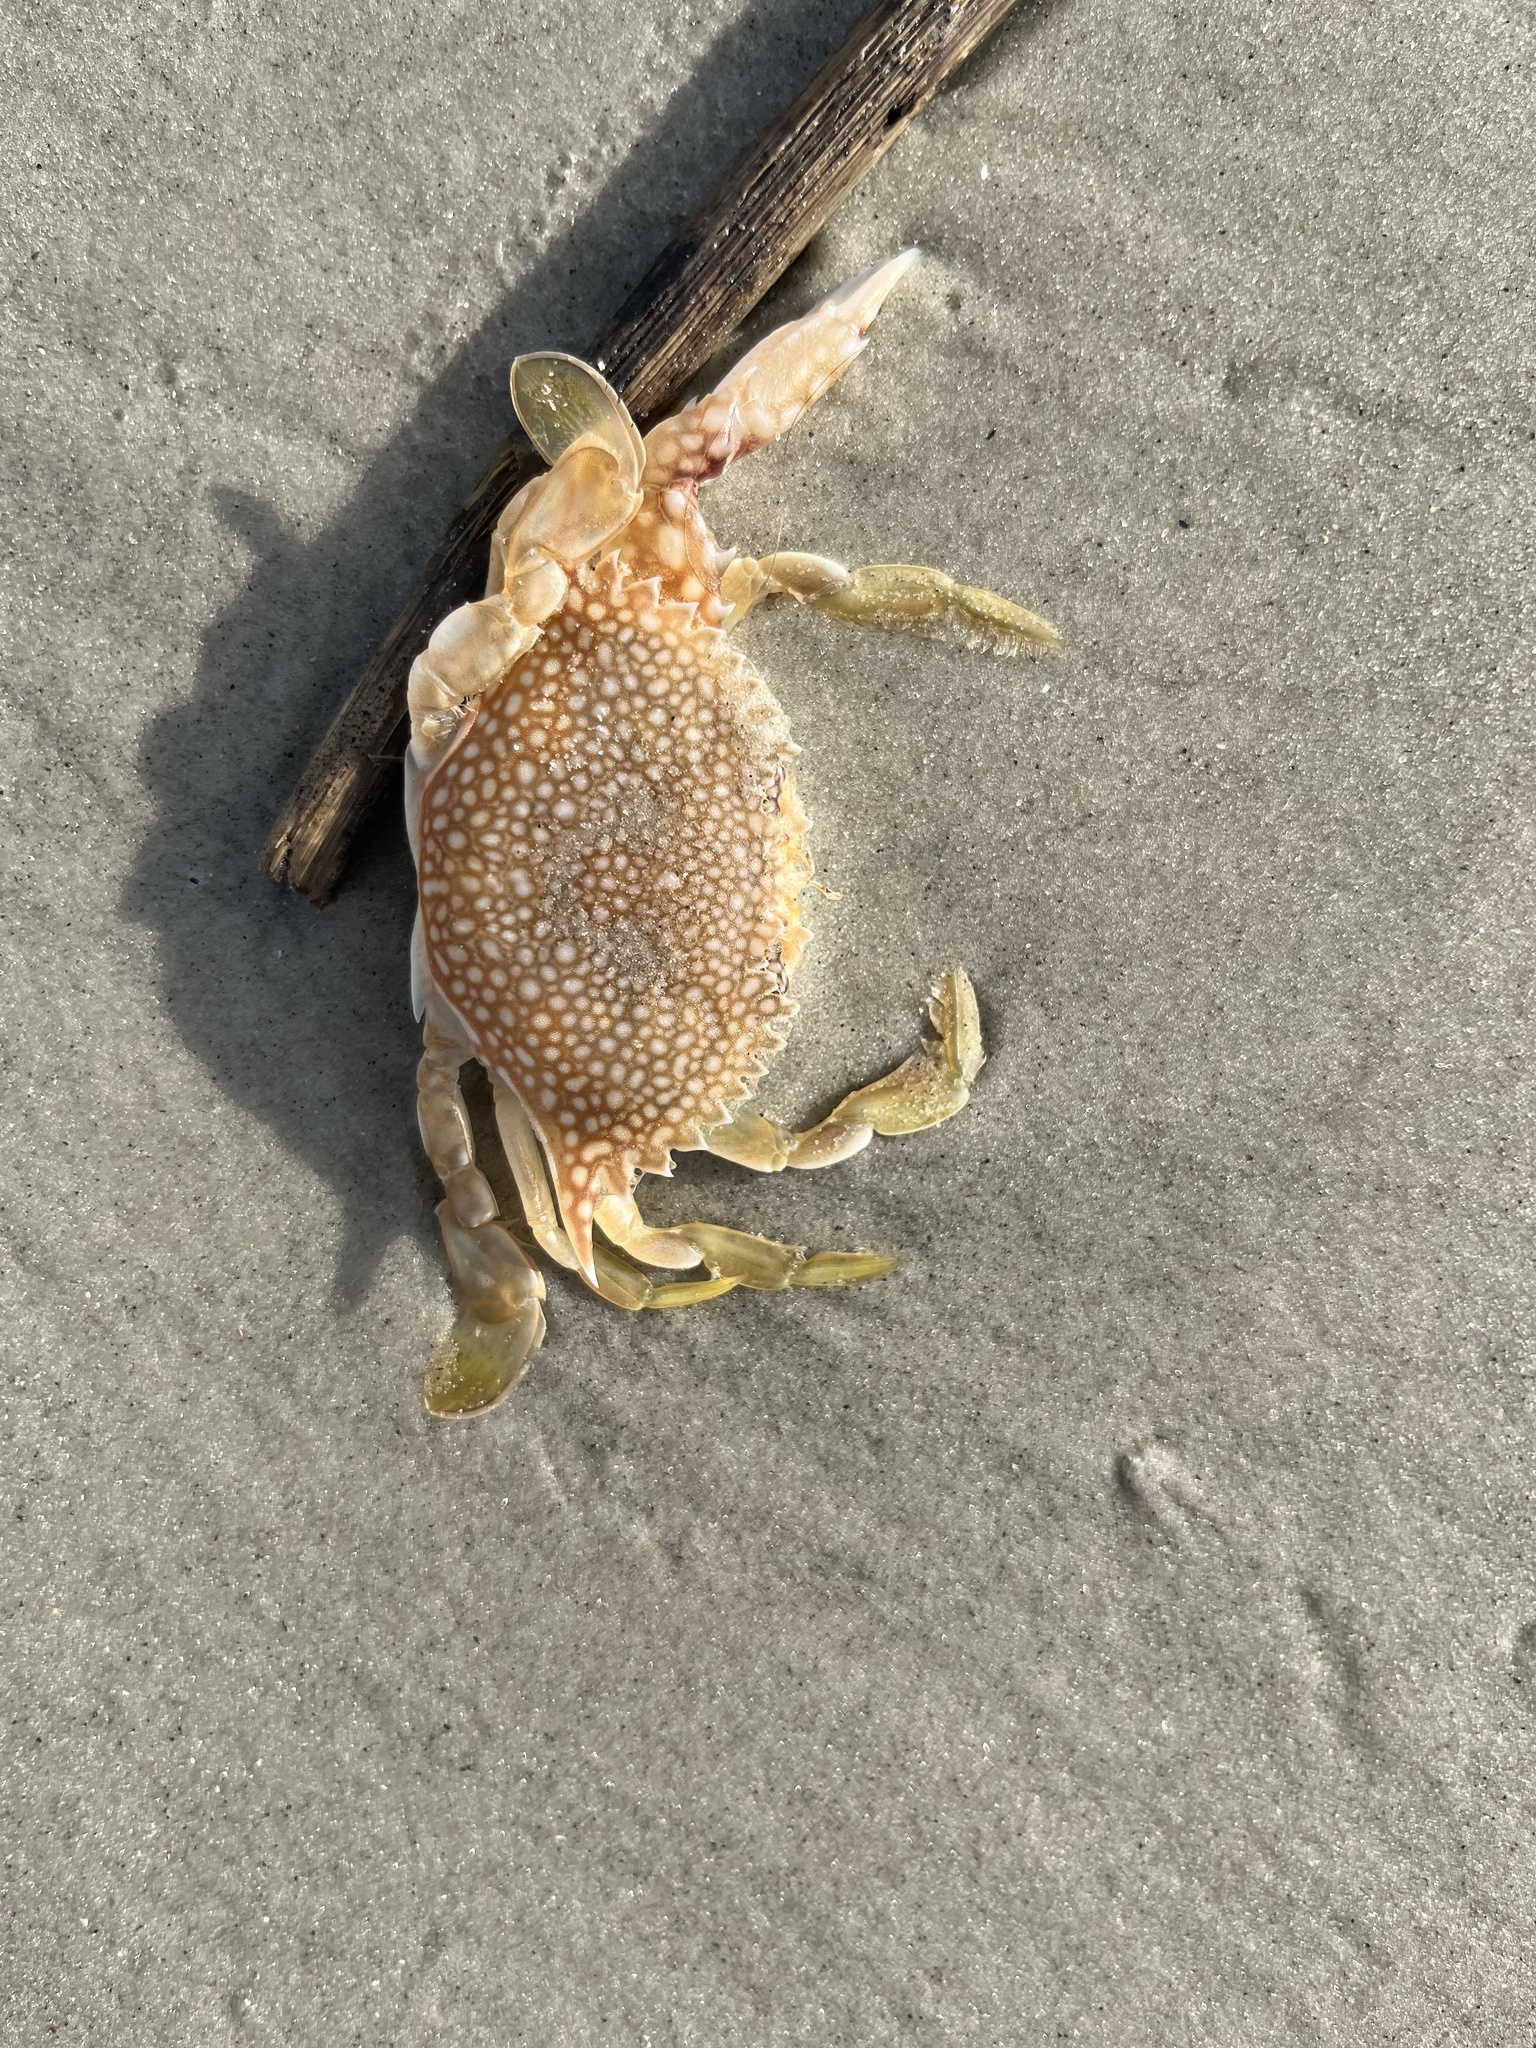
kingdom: Animalia
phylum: Arthropoda
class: Malacostraca
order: Decapoda
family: Portunidae
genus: Arenaeus
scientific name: Arenaeus cribrarius
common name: Speckled crab
